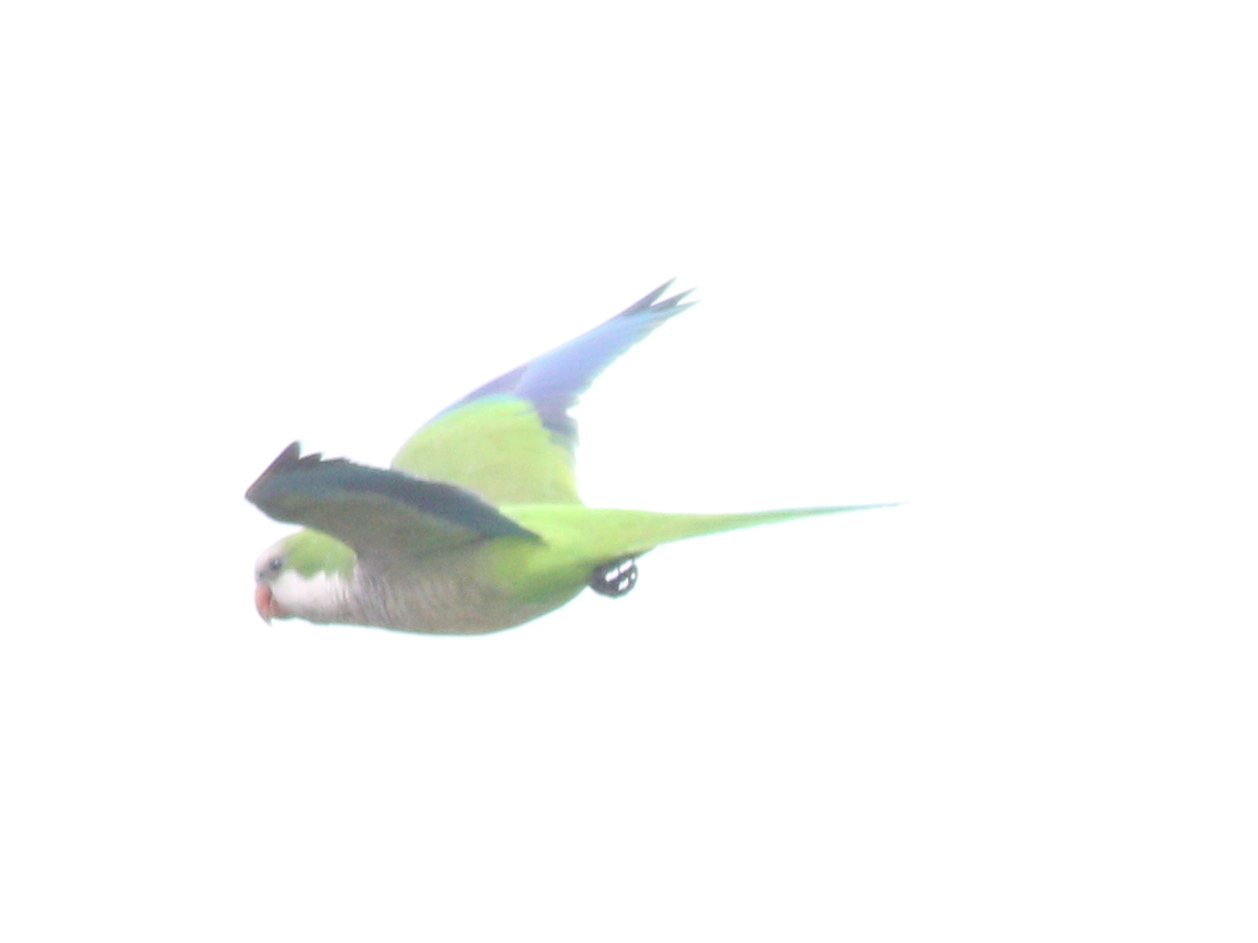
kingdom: Animalia
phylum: Chordata
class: Aves
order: Psittaciformes
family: Psittacidae
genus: Myiopsitta
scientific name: Myiopsitta monachus
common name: Monk parakeet
